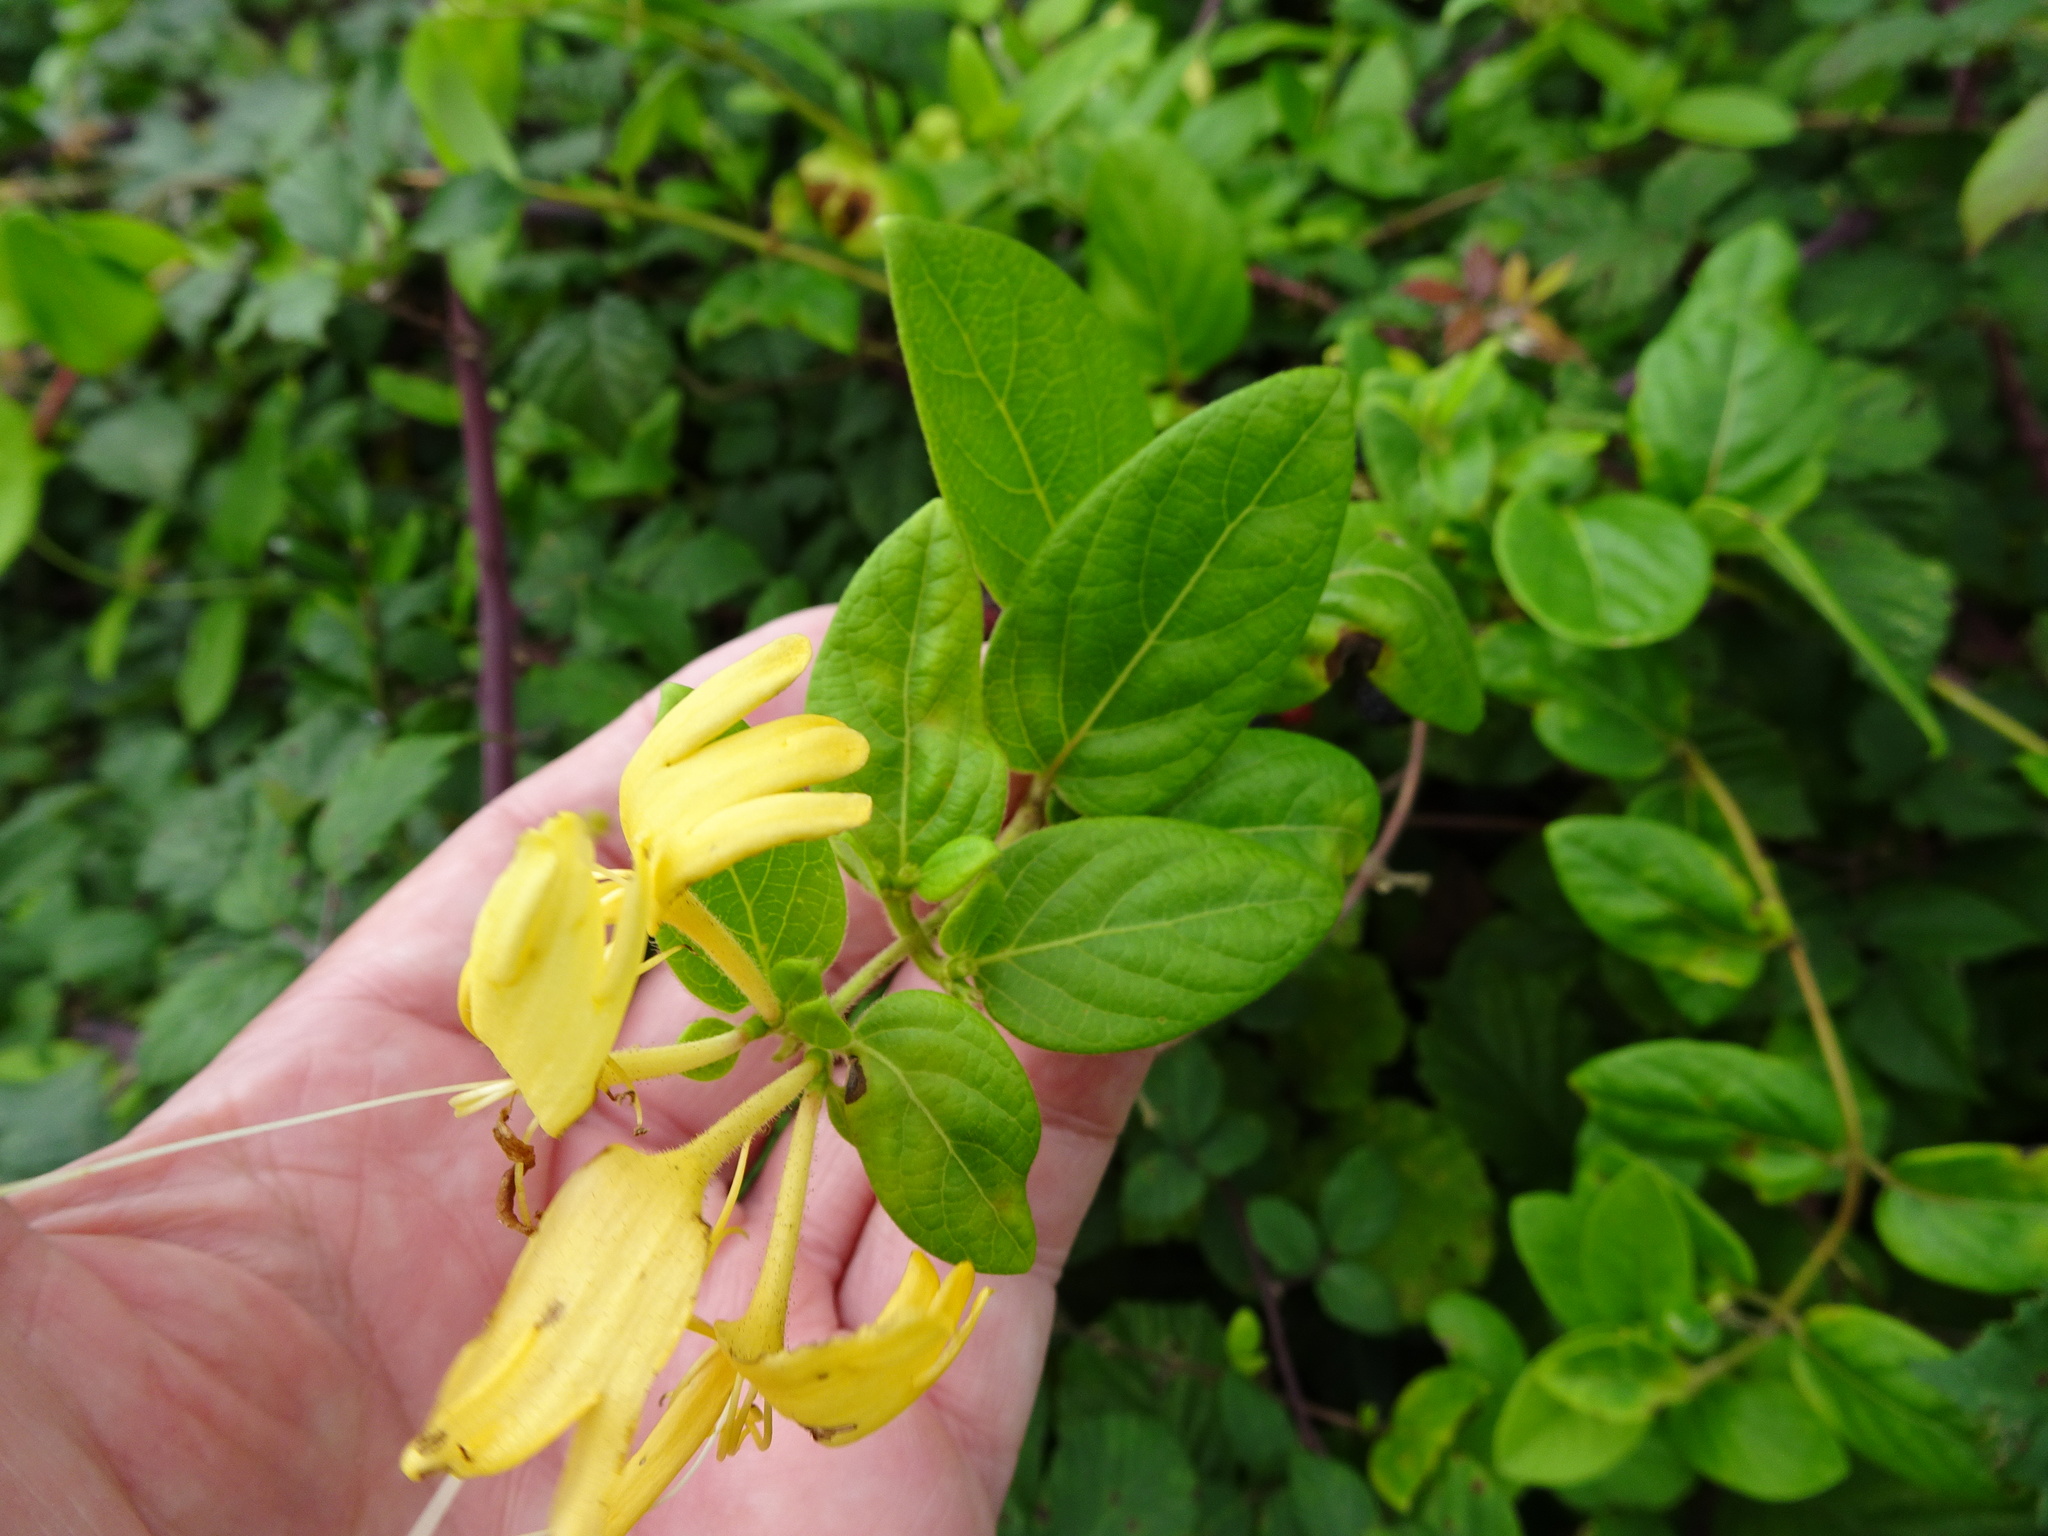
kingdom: Plantae
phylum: Tracheophyta
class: Magnoliopsida
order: Dipsacales
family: Caprifoliaceae
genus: Lonicera
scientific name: Lonicera japonica
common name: Japanese honeysuckle
